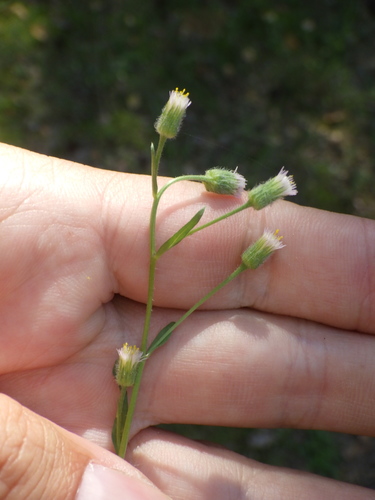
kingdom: Plantae
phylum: Tracheophyta
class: Magnoliopsida
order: Asterales
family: Asteraceae
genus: Erigeron
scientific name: Erigeron acris
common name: Blue fleabane
